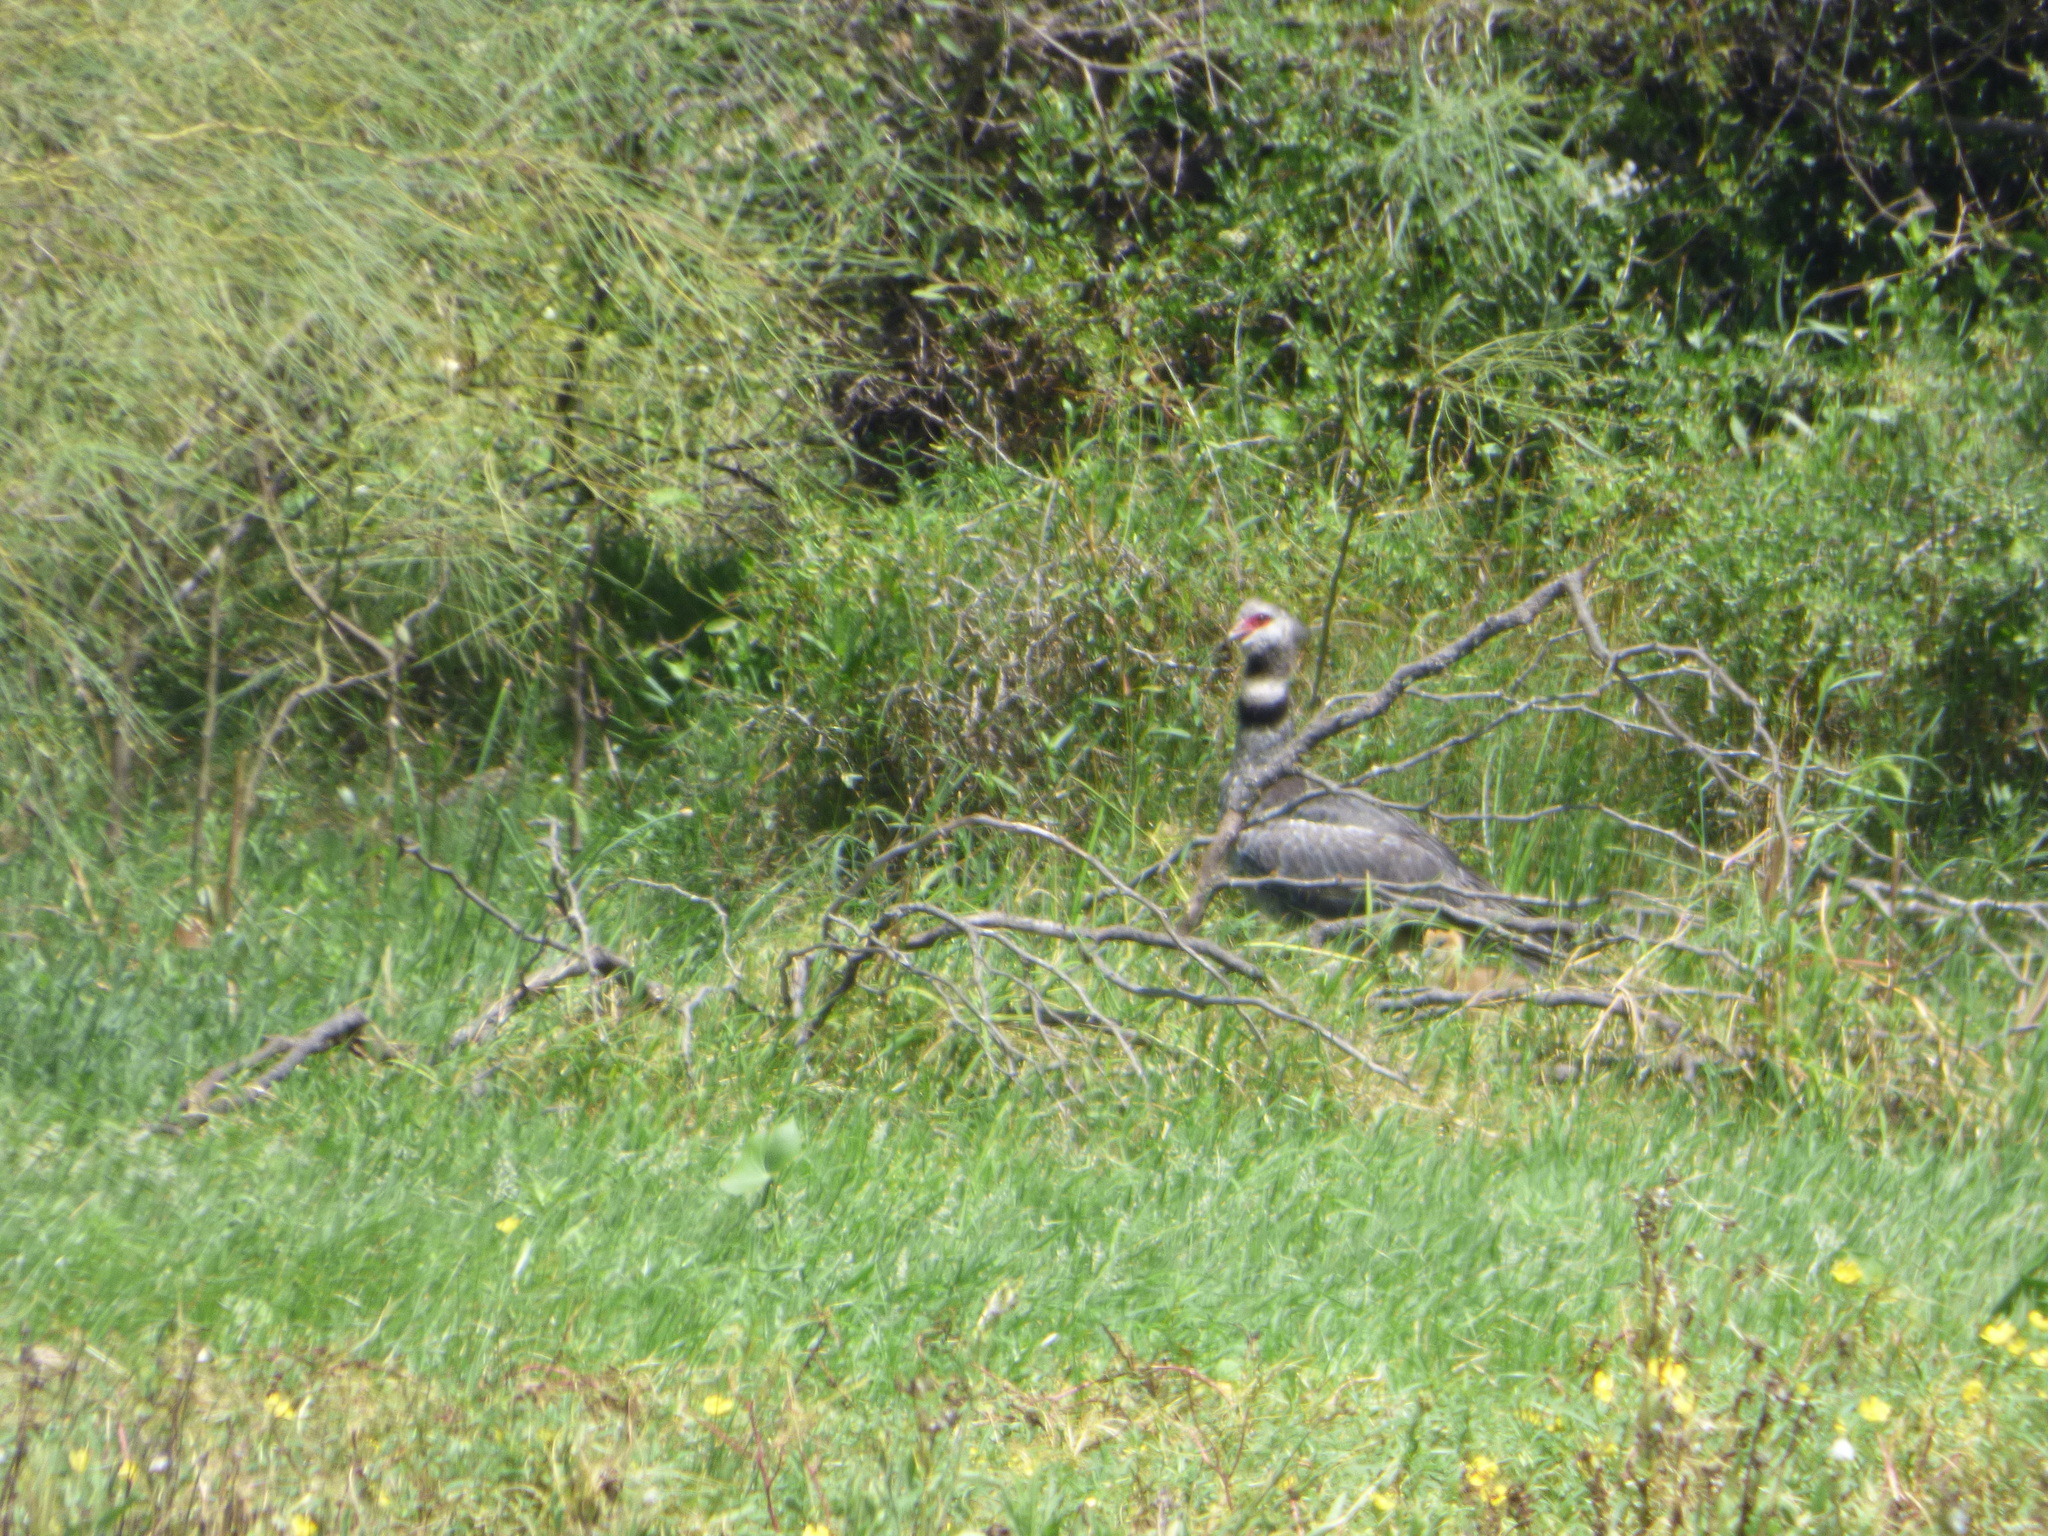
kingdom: Animalia
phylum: Chordata
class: Aves
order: Anseriformes
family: Anhimidae
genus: Chauna
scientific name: Chauna torquata
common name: Southern screamer
